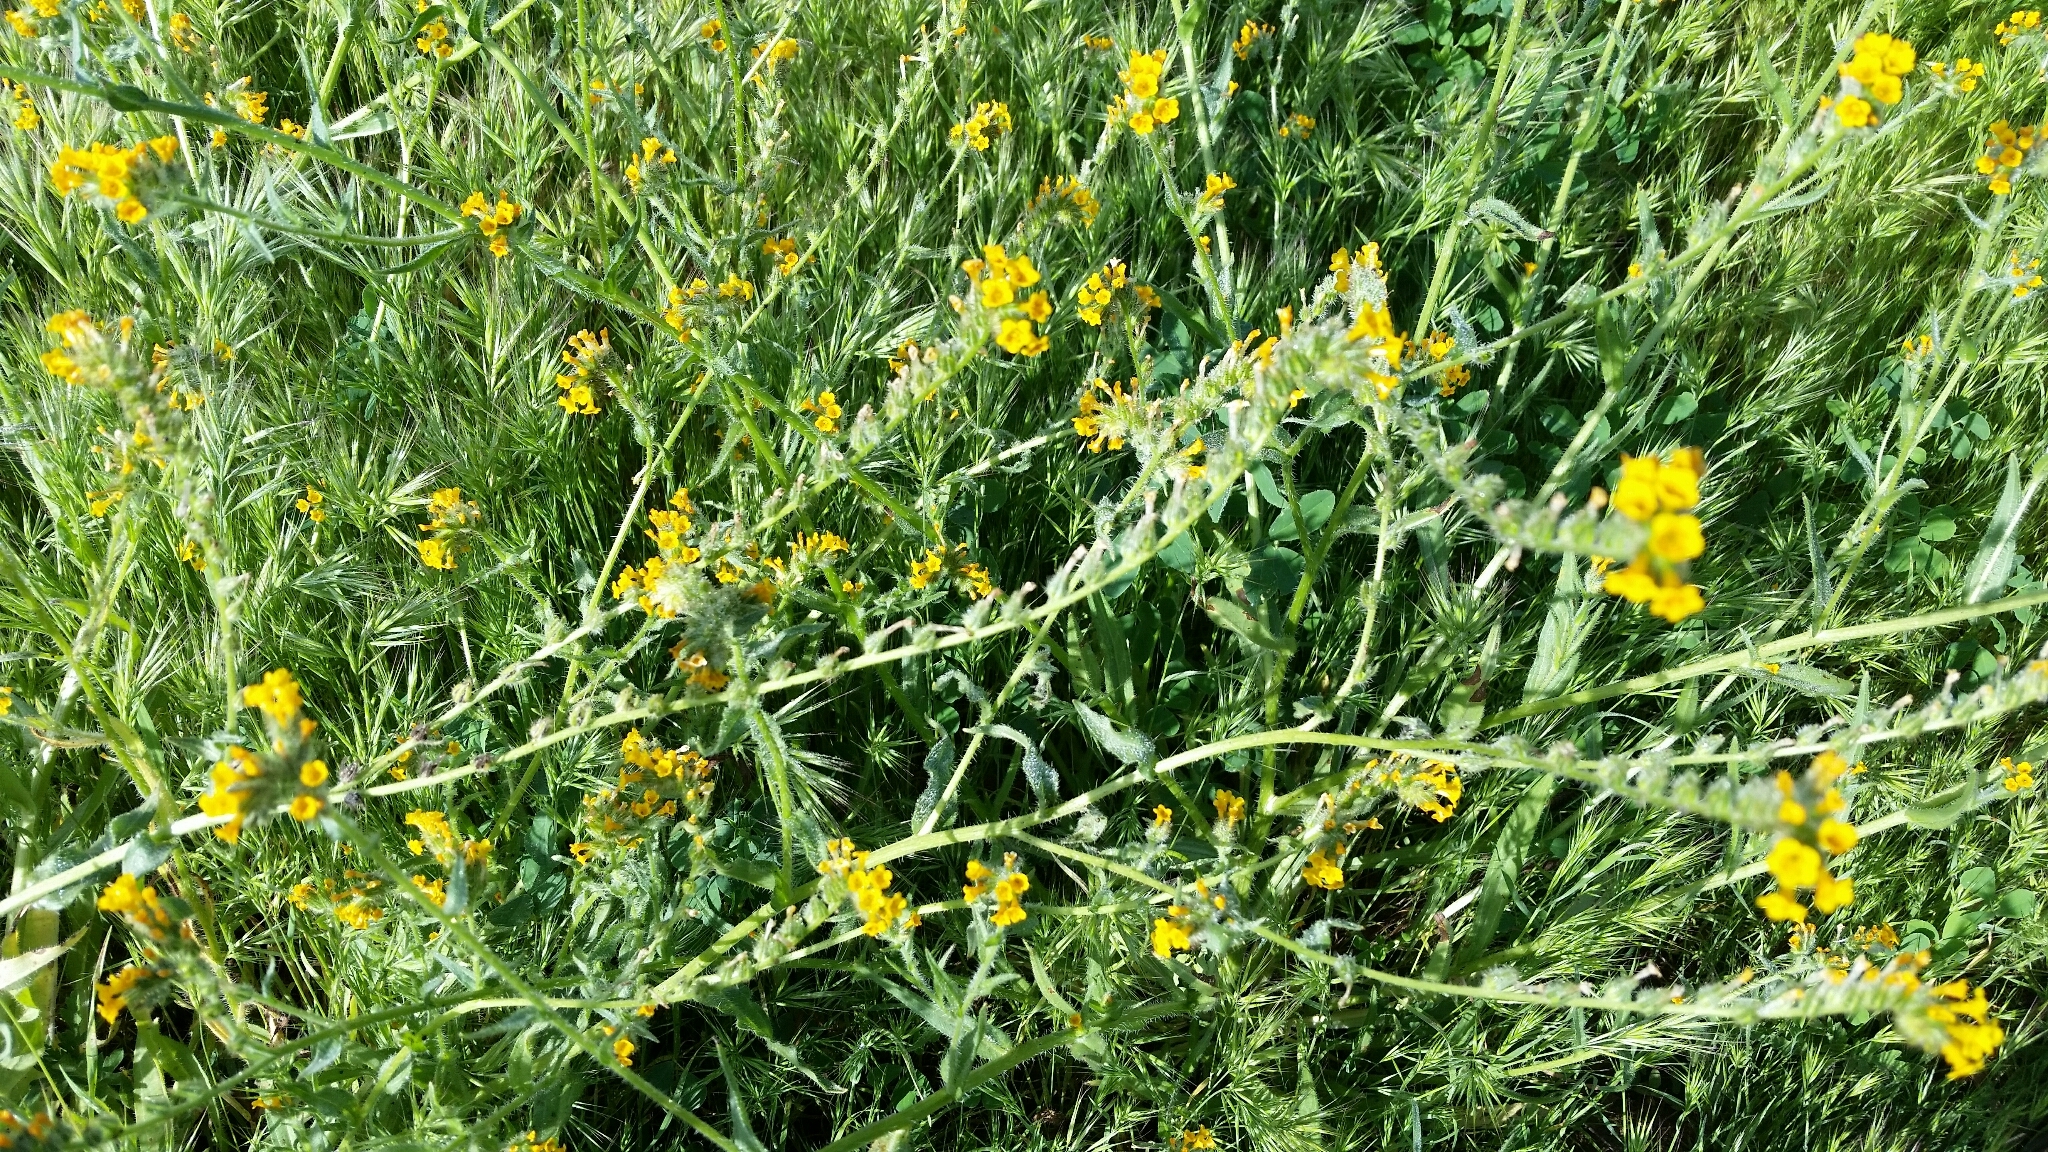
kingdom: Plantae
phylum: Tracheophyta
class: Magnoliopsida
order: Boraginales
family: Boraginaceae
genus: Amsinckia
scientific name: Amsinckia menziesii
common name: Menzies' fiddleneck
